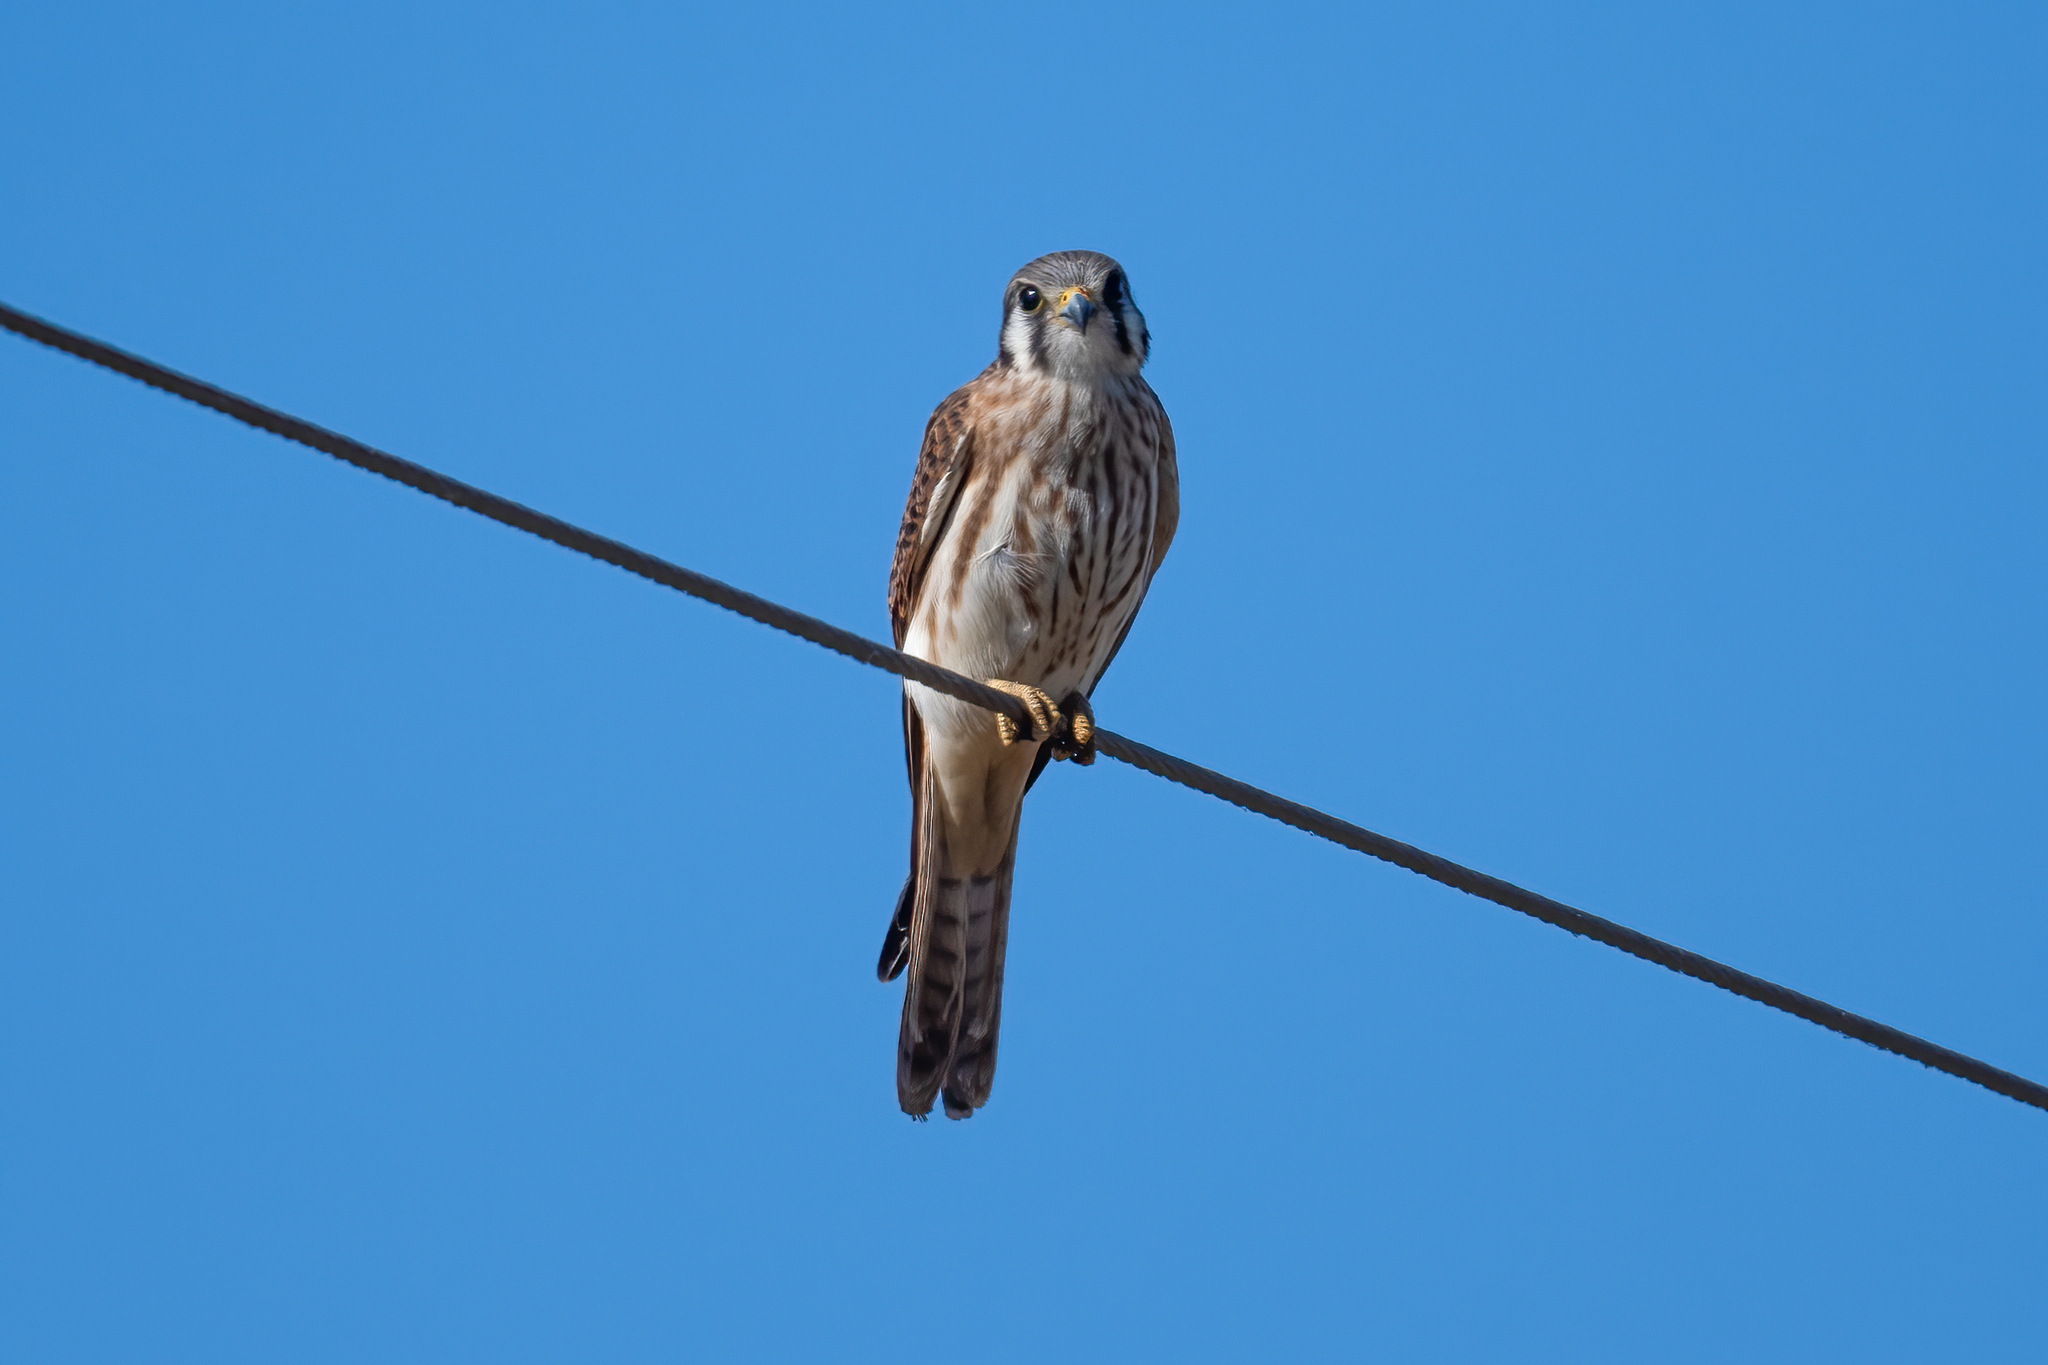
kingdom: Animalia
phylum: Chordata
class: Aves
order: Falconiformes
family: Falconidae
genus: Falco
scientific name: Falco sparverius
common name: American kestrel
